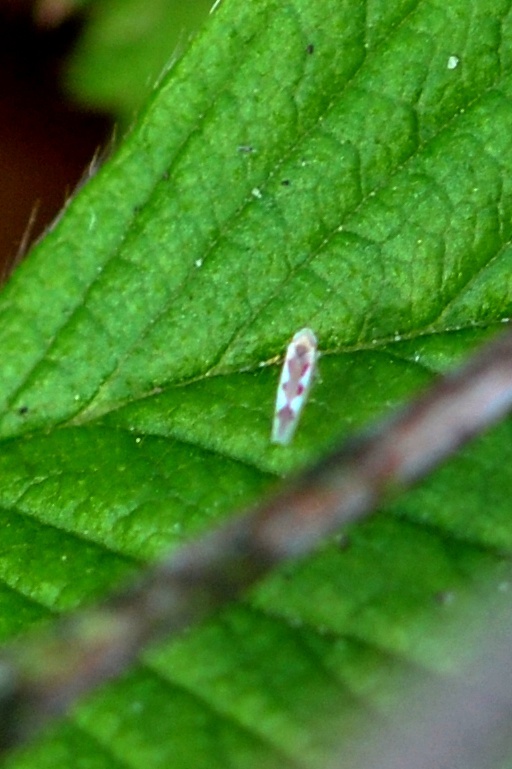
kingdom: Animalia
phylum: Arthropoda
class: Insecta
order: Hemiptera
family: Cicadellidae
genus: Zygina
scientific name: Zygina flammigera
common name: Leafhopper
